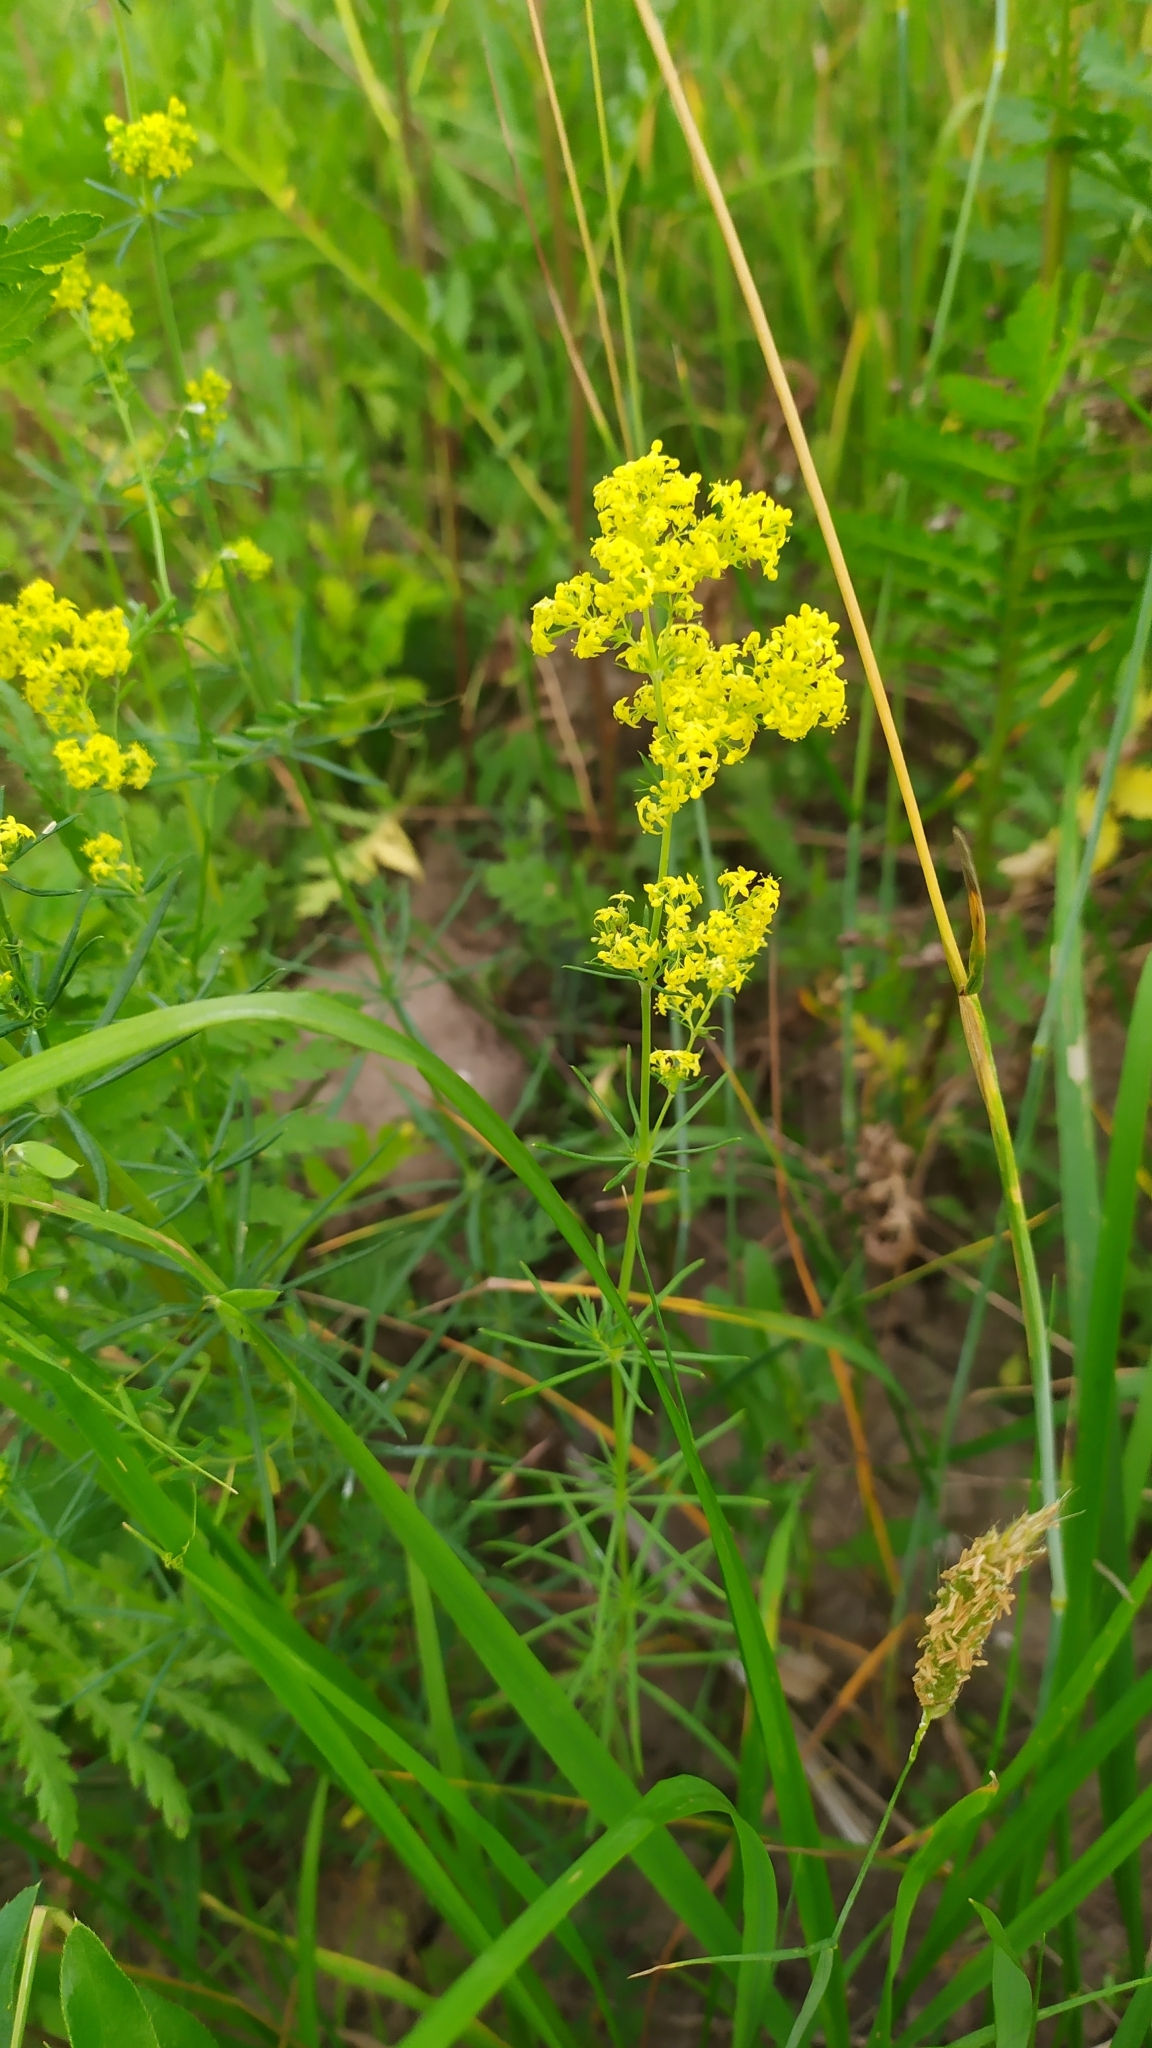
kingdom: Plantae
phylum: Tracheophyta
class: Magnoliopsida
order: Gentianales
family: Rubiaceae
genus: Galium
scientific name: Galium verum
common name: Lady's bedstraw
